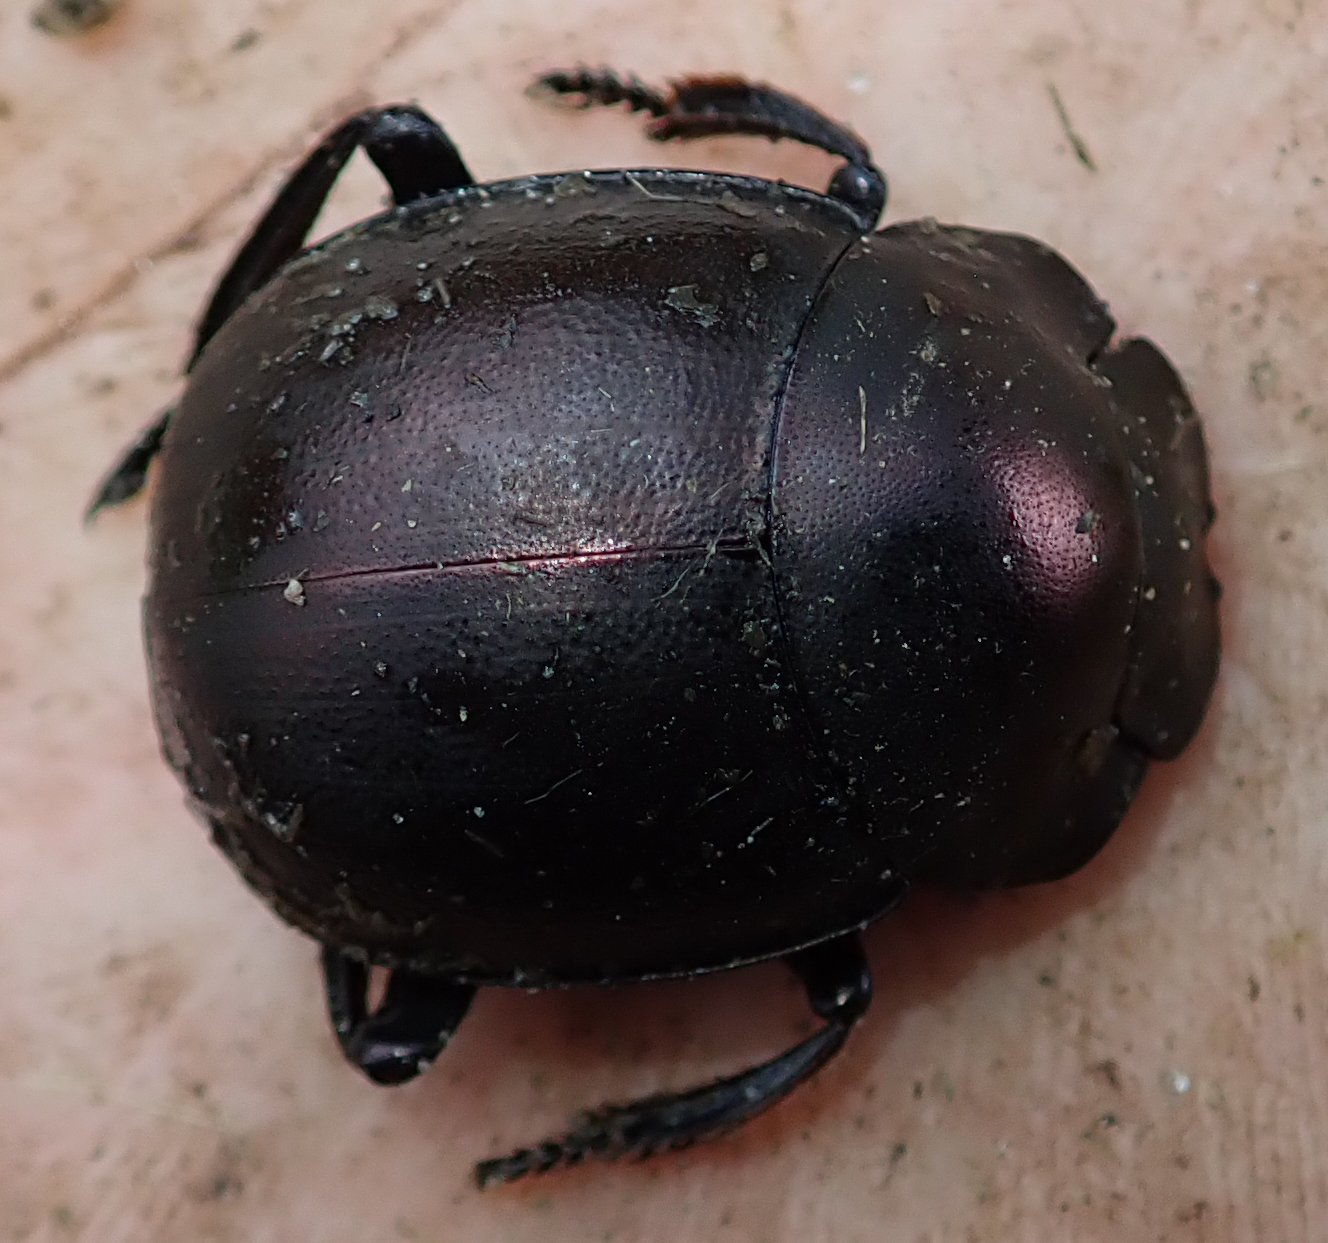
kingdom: Animalia
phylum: Arthropoda
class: Insecta
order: Coleoptera
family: Scarabaeidae
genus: Chalconotus
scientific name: Chalconotus convexus
